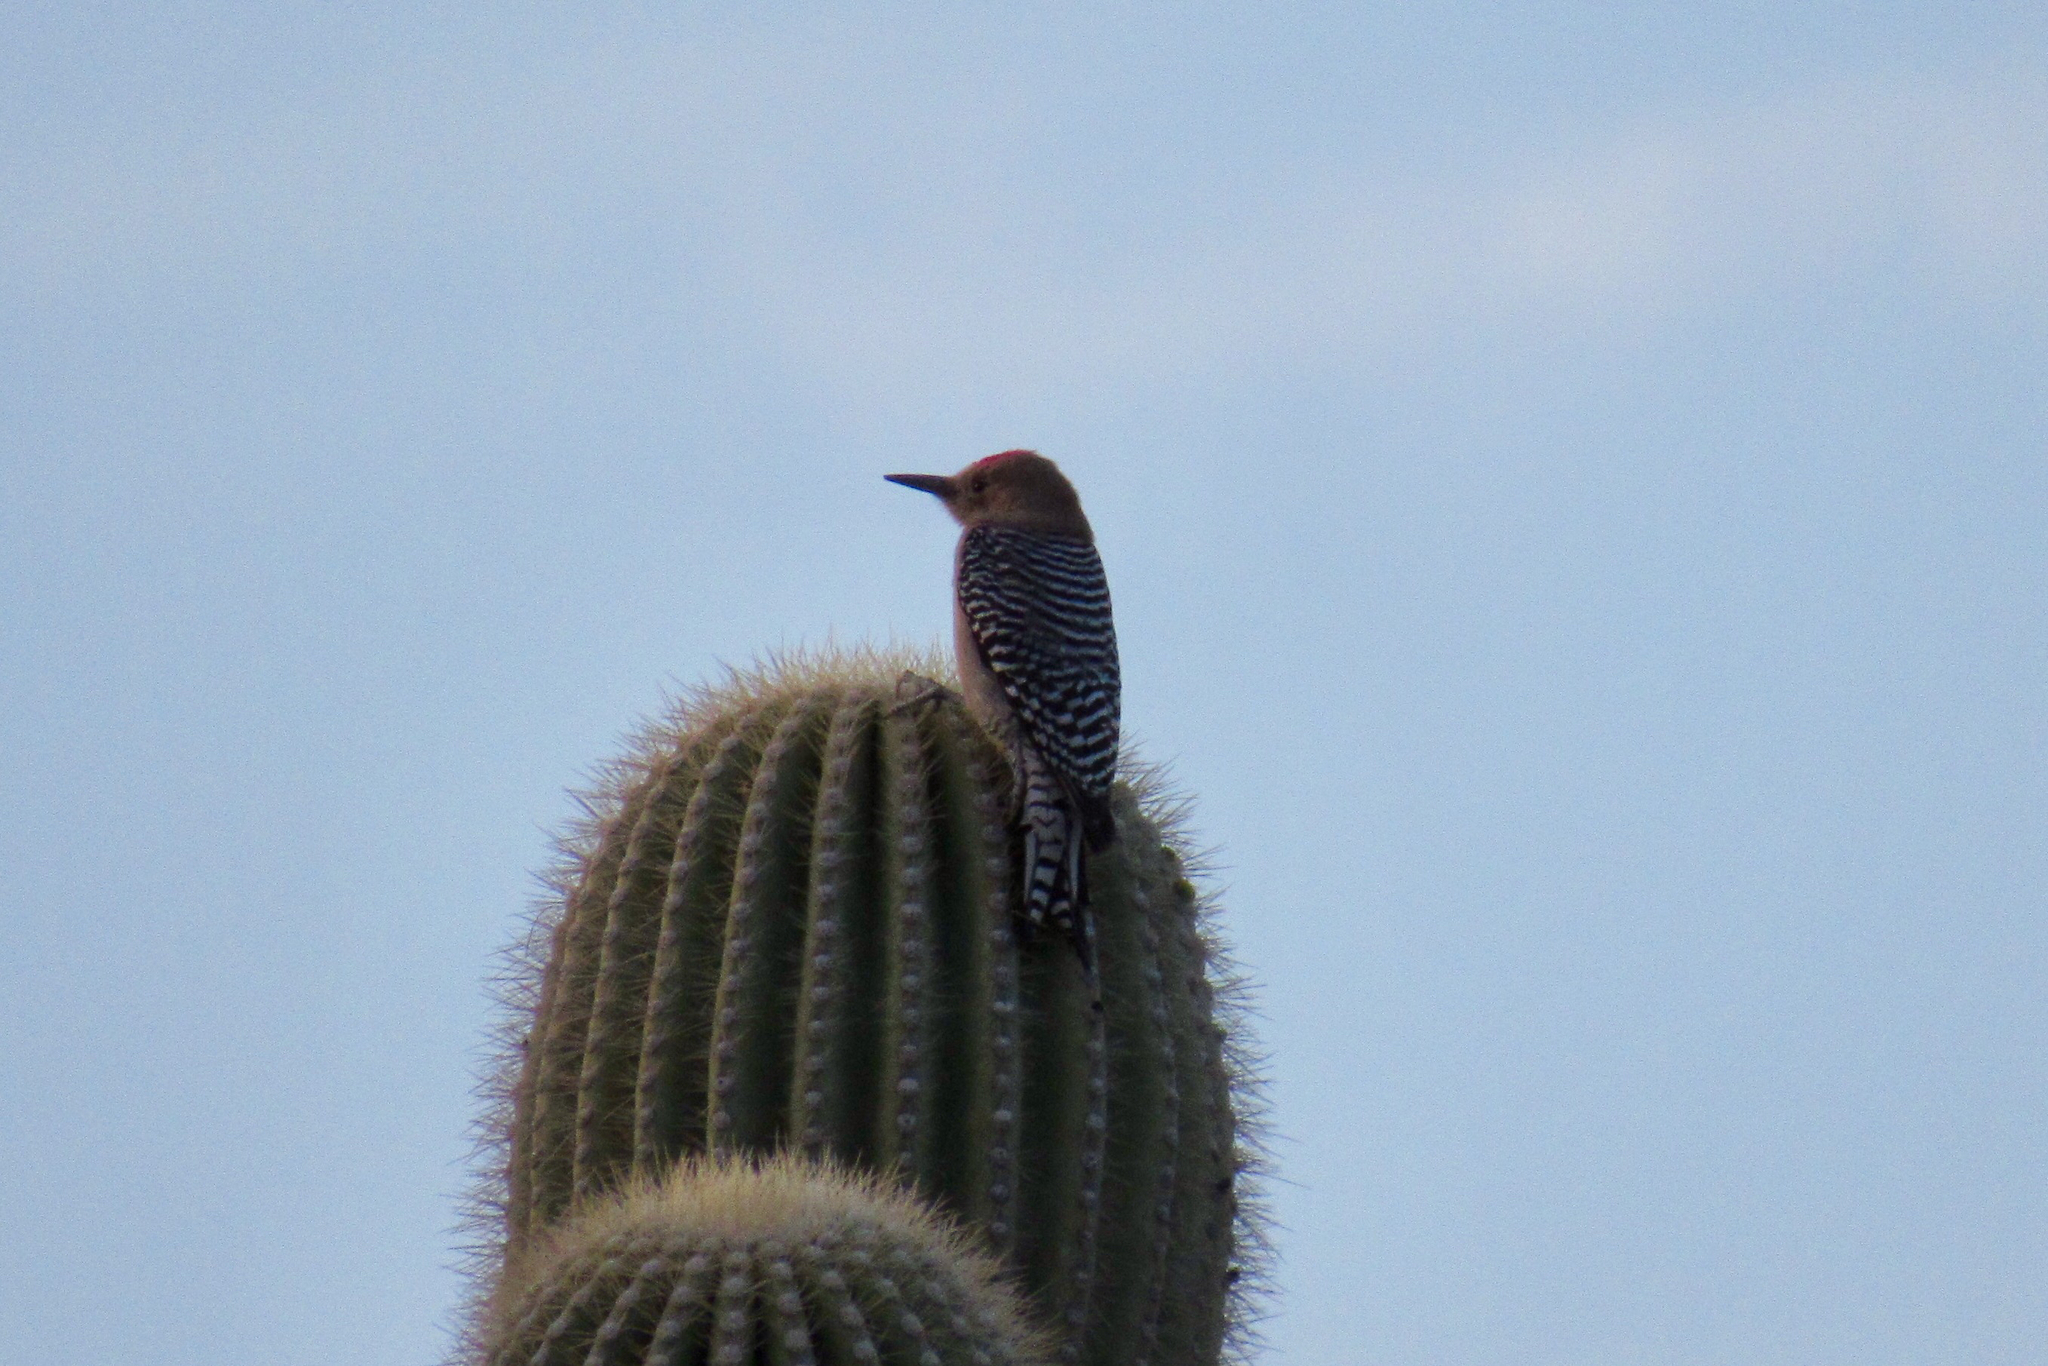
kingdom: Animalia
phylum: Chordata
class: Aves
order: Piciformes
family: Picidae
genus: Melanerpes
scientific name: Melanerpes uropygialis
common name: Gila woodpecker
